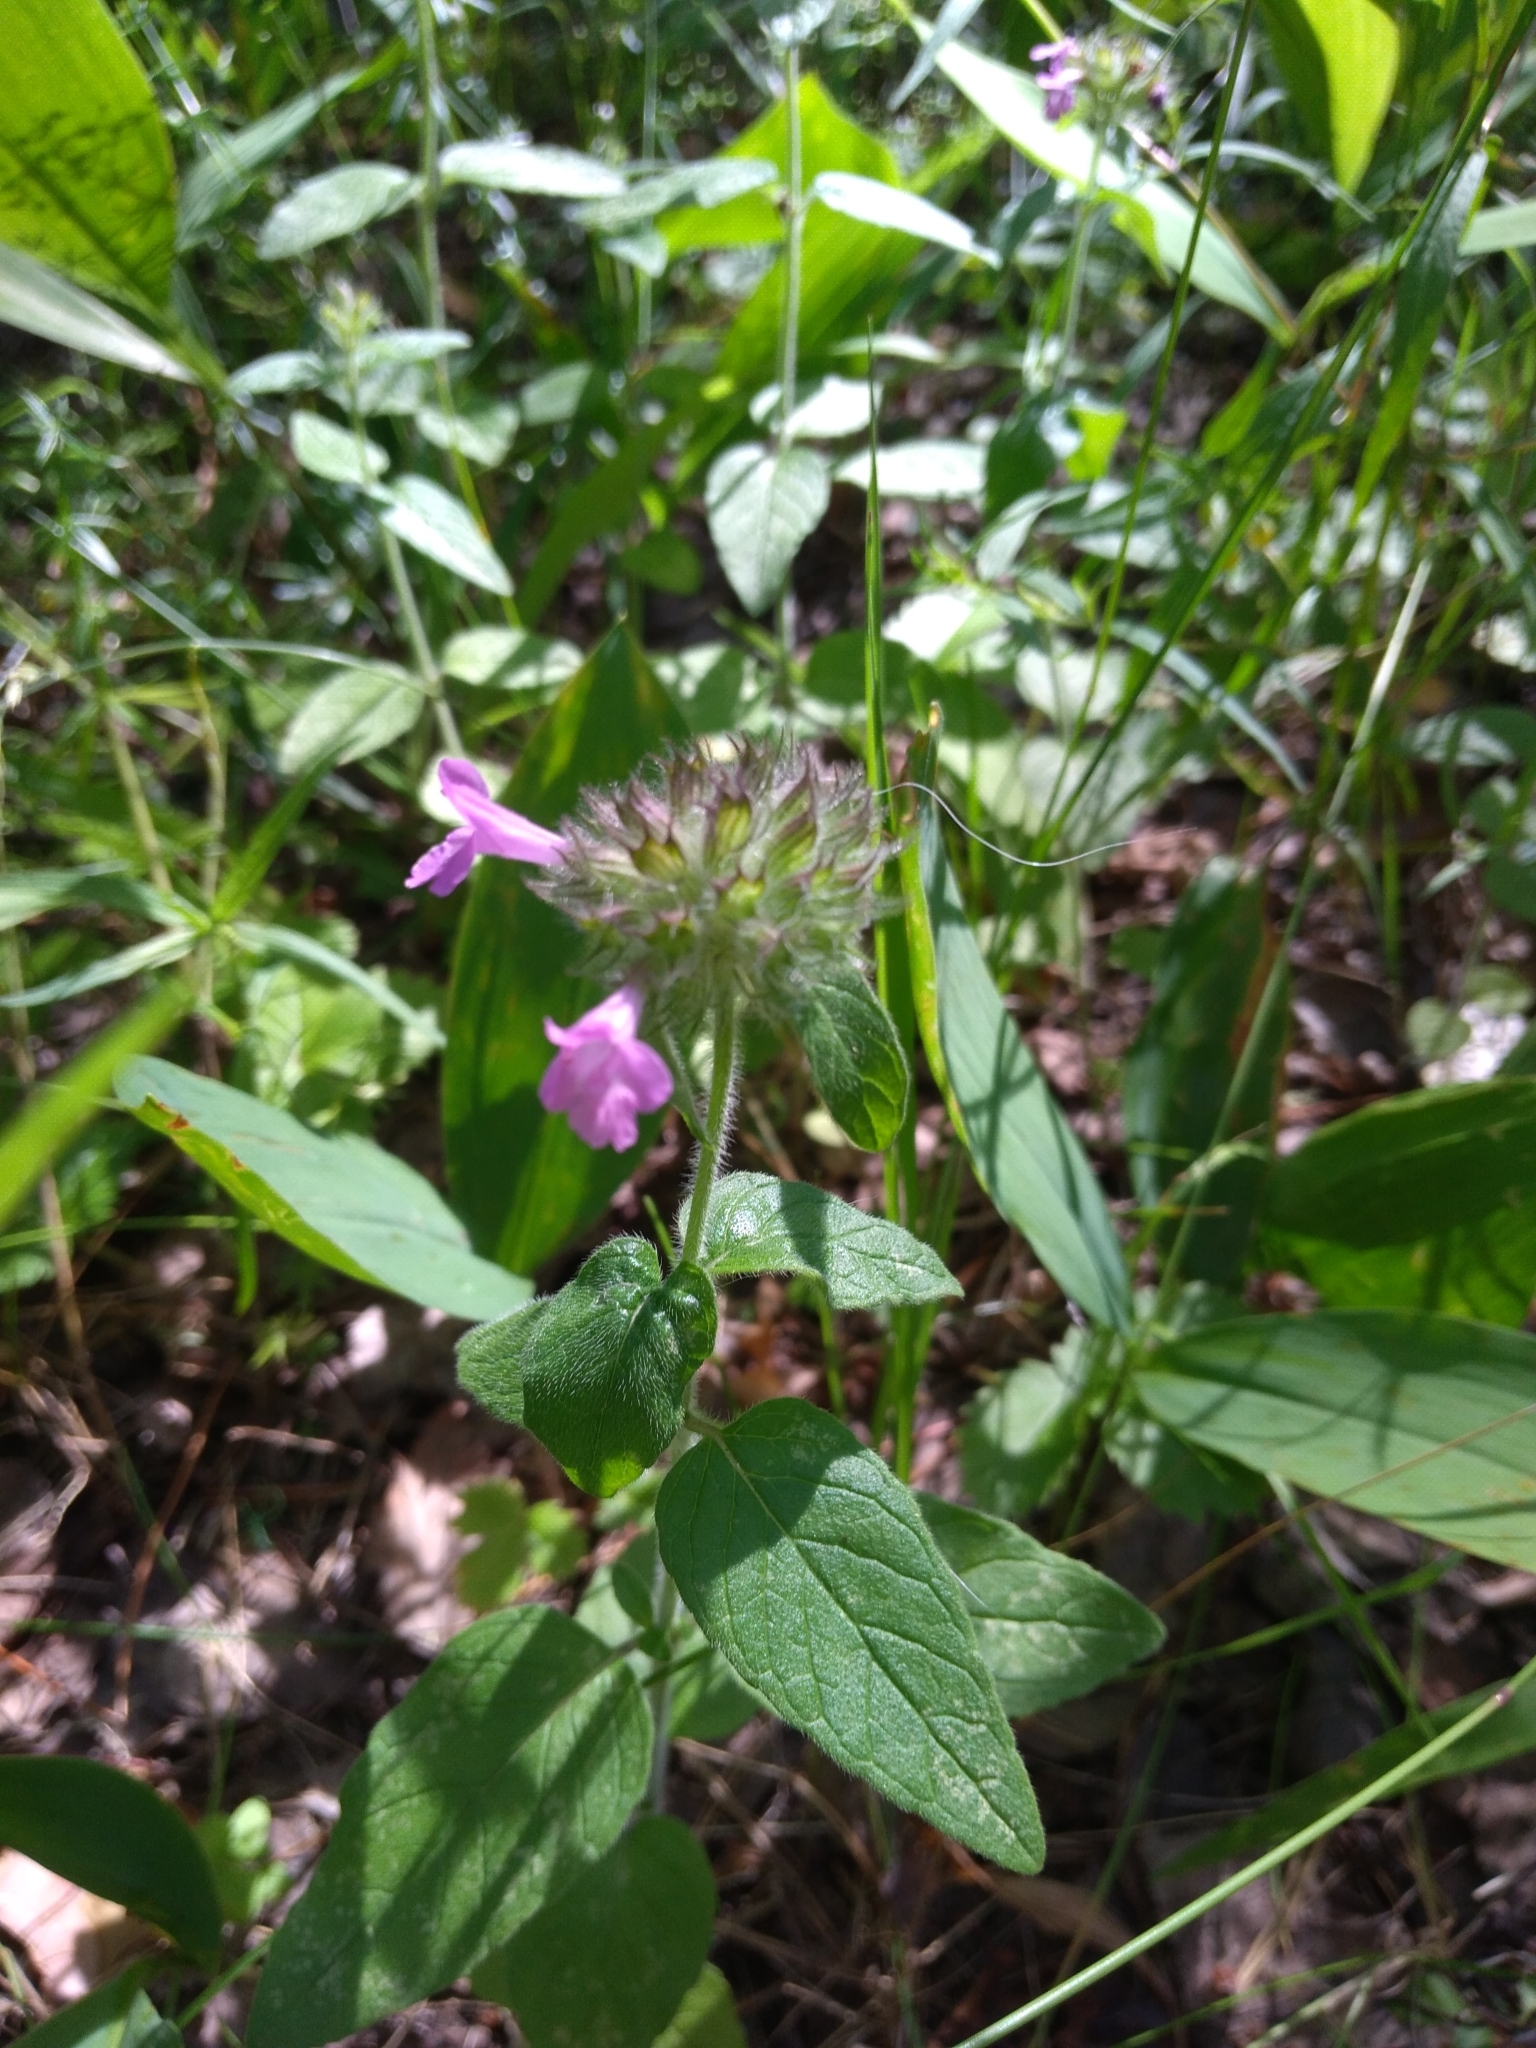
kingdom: Plantae
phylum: Tracheophyta
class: Magnoliopsida
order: Lamiales
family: Lamiaceae
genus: Clinopodium
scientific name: Clinopodium vulgare
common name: Wild basil
